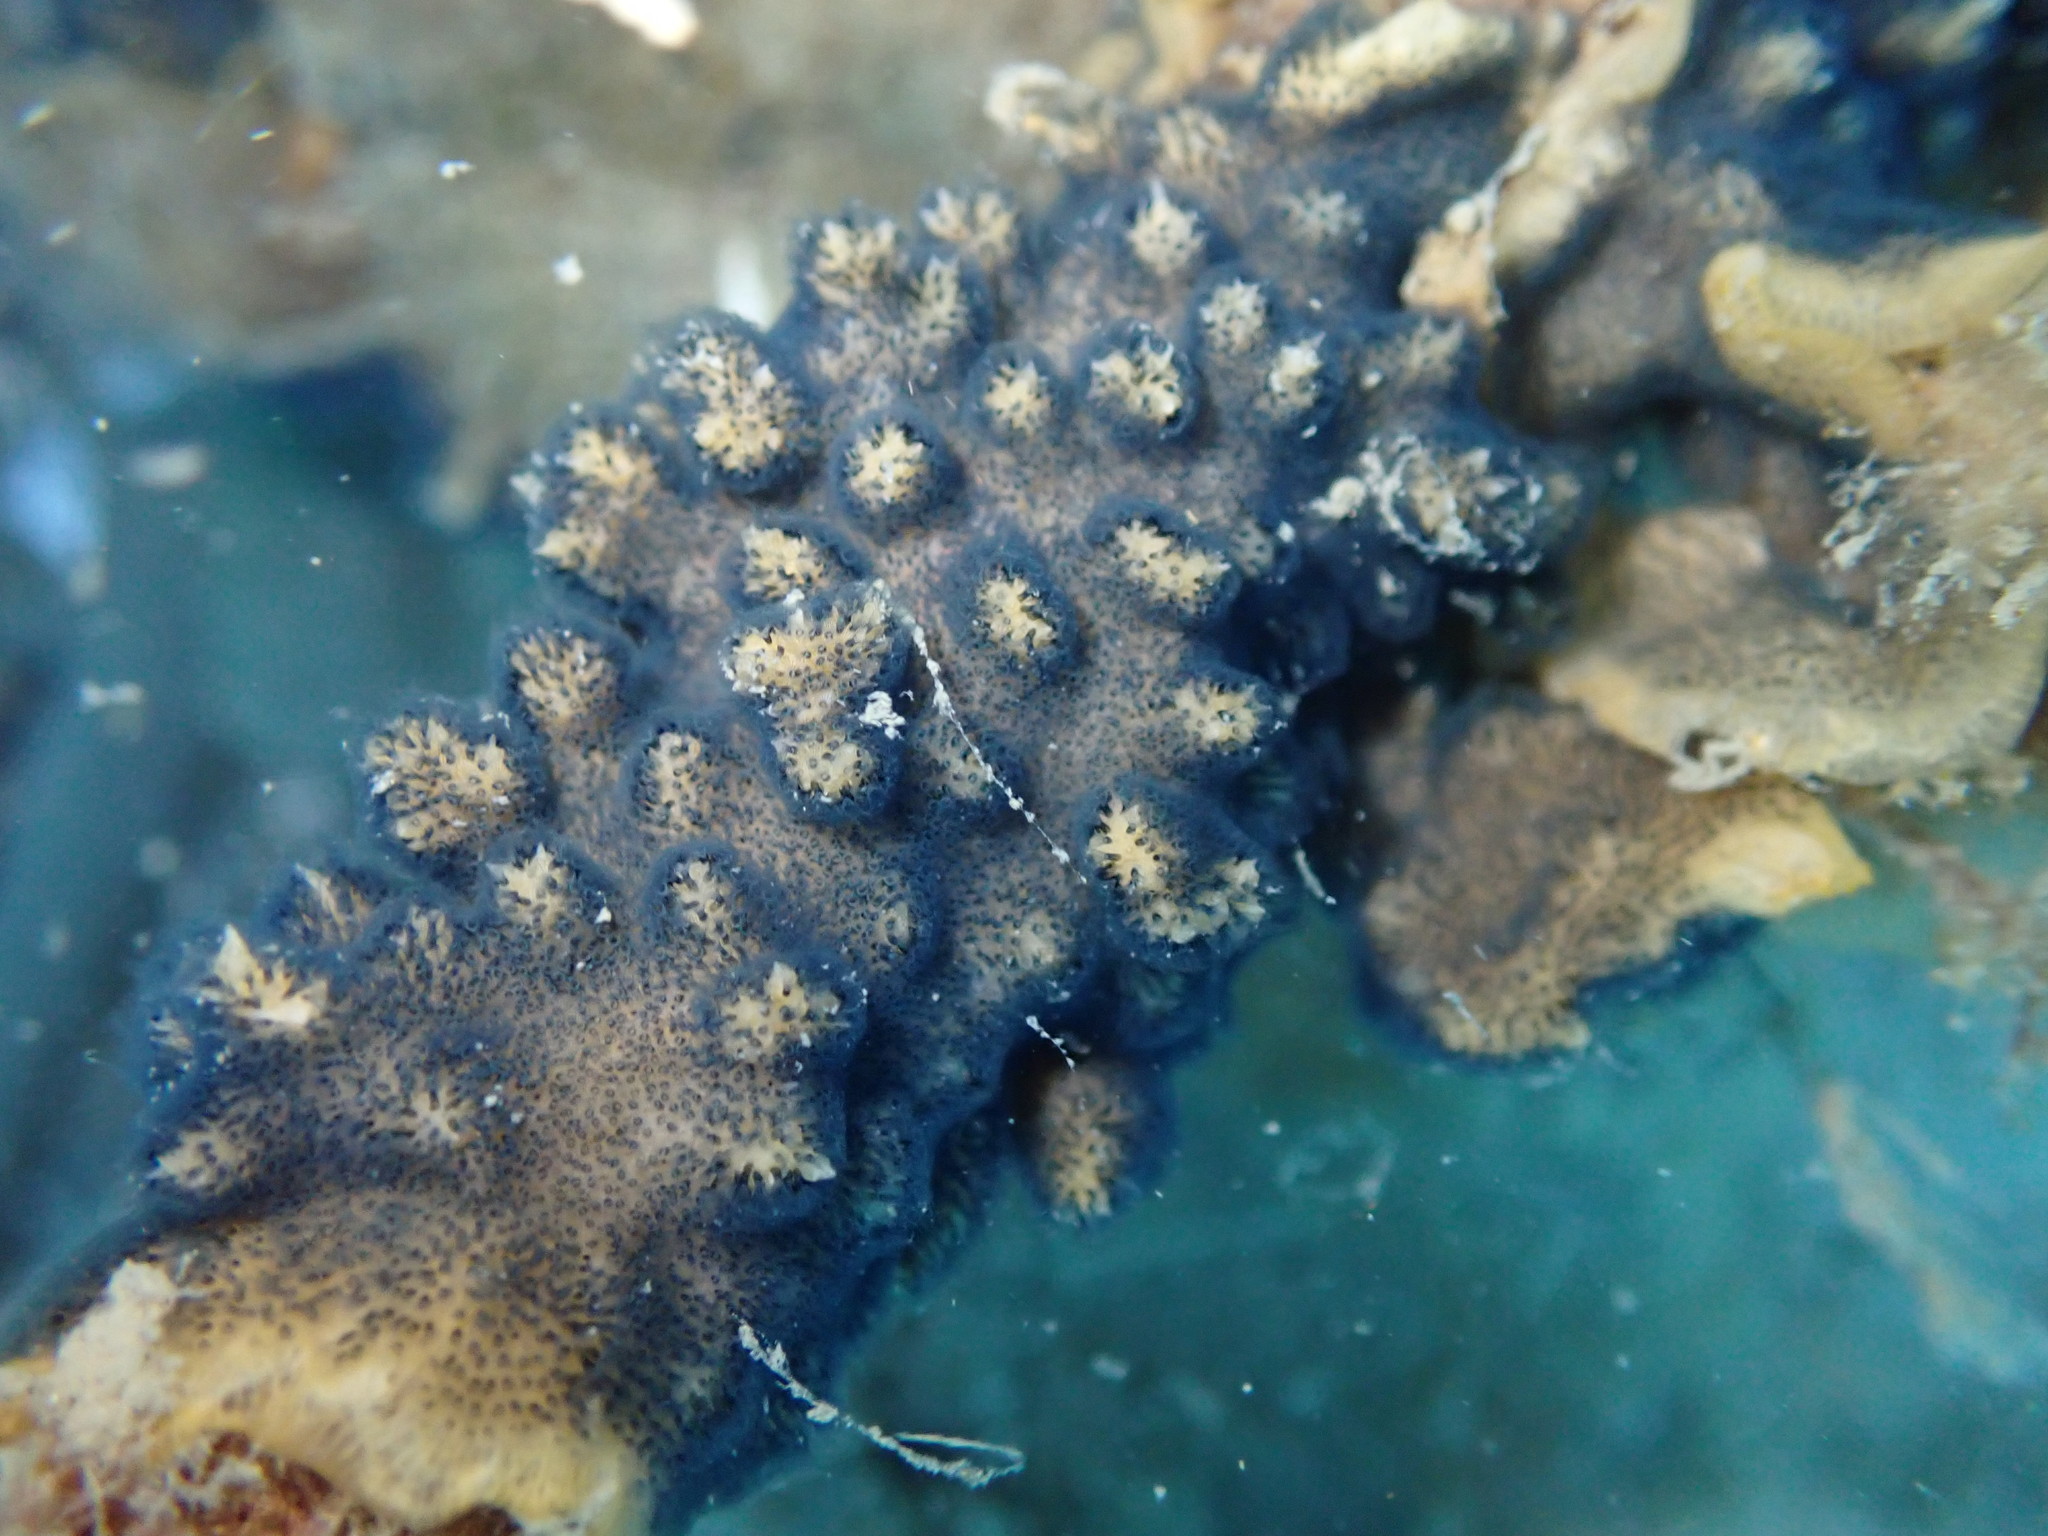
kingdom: Animalia
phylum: Bryozoa
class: Gymnolaemata
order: Cheilostomatida
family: Celleporidae
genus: Celleporaria
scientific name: Celleporaria nodulosa
